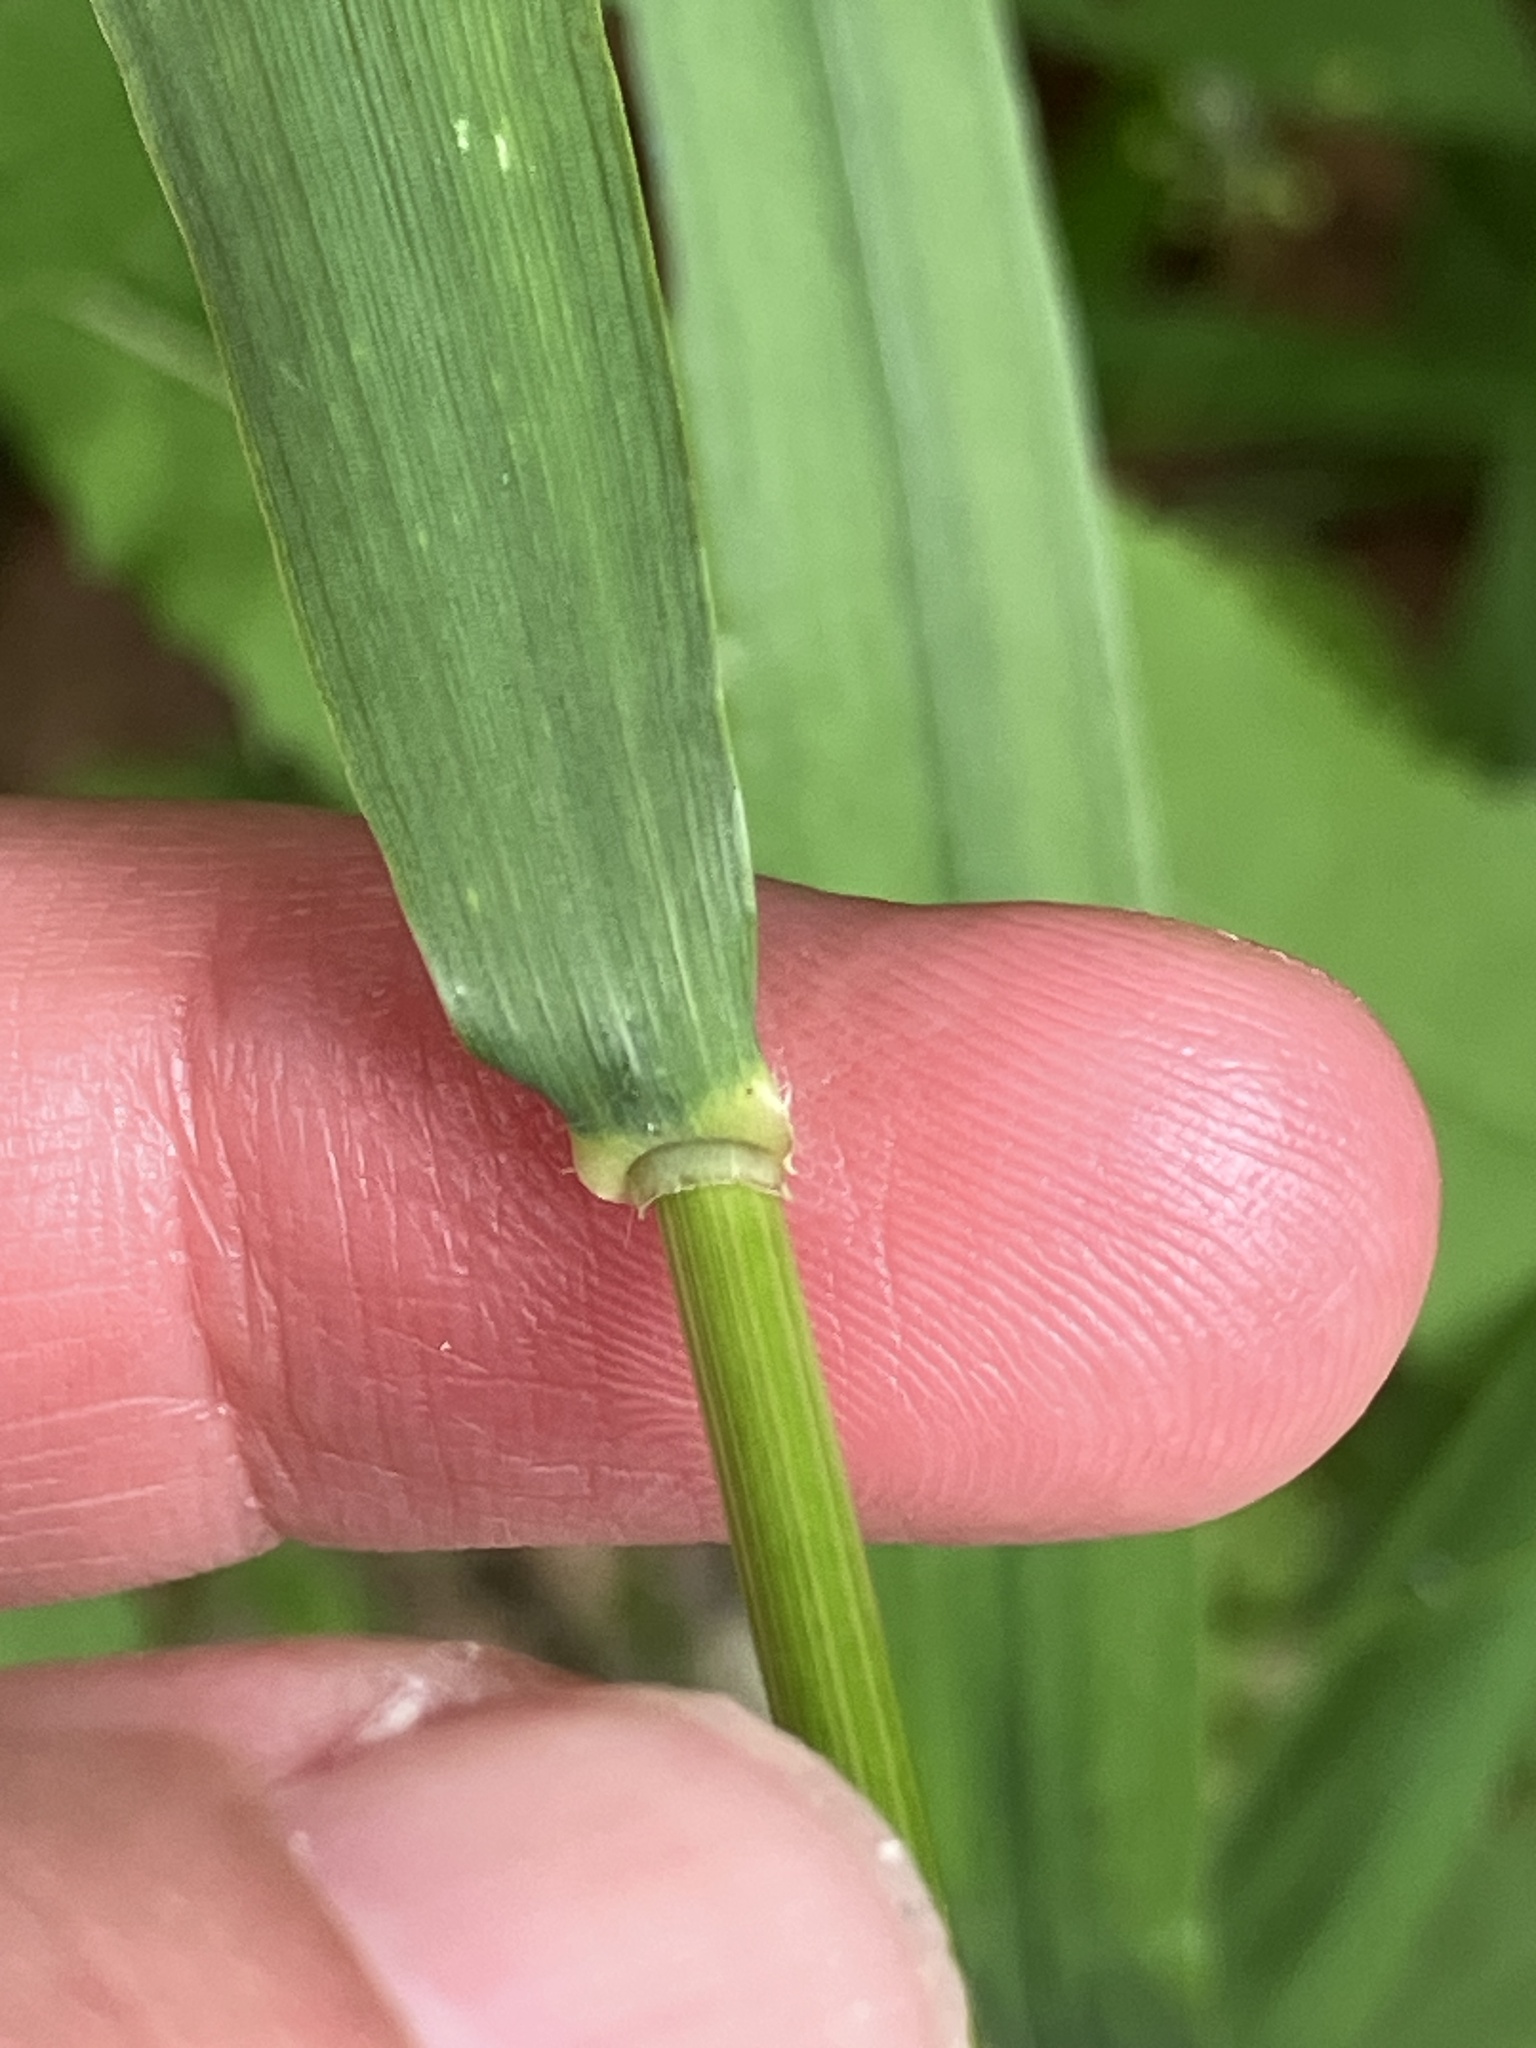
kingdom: Plantae
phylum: Tracheophyta
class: Liliopsida
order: Poales
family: Poaceae
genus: Hordelymus
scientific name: Hordelymus europaeus
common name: Wood-barley
